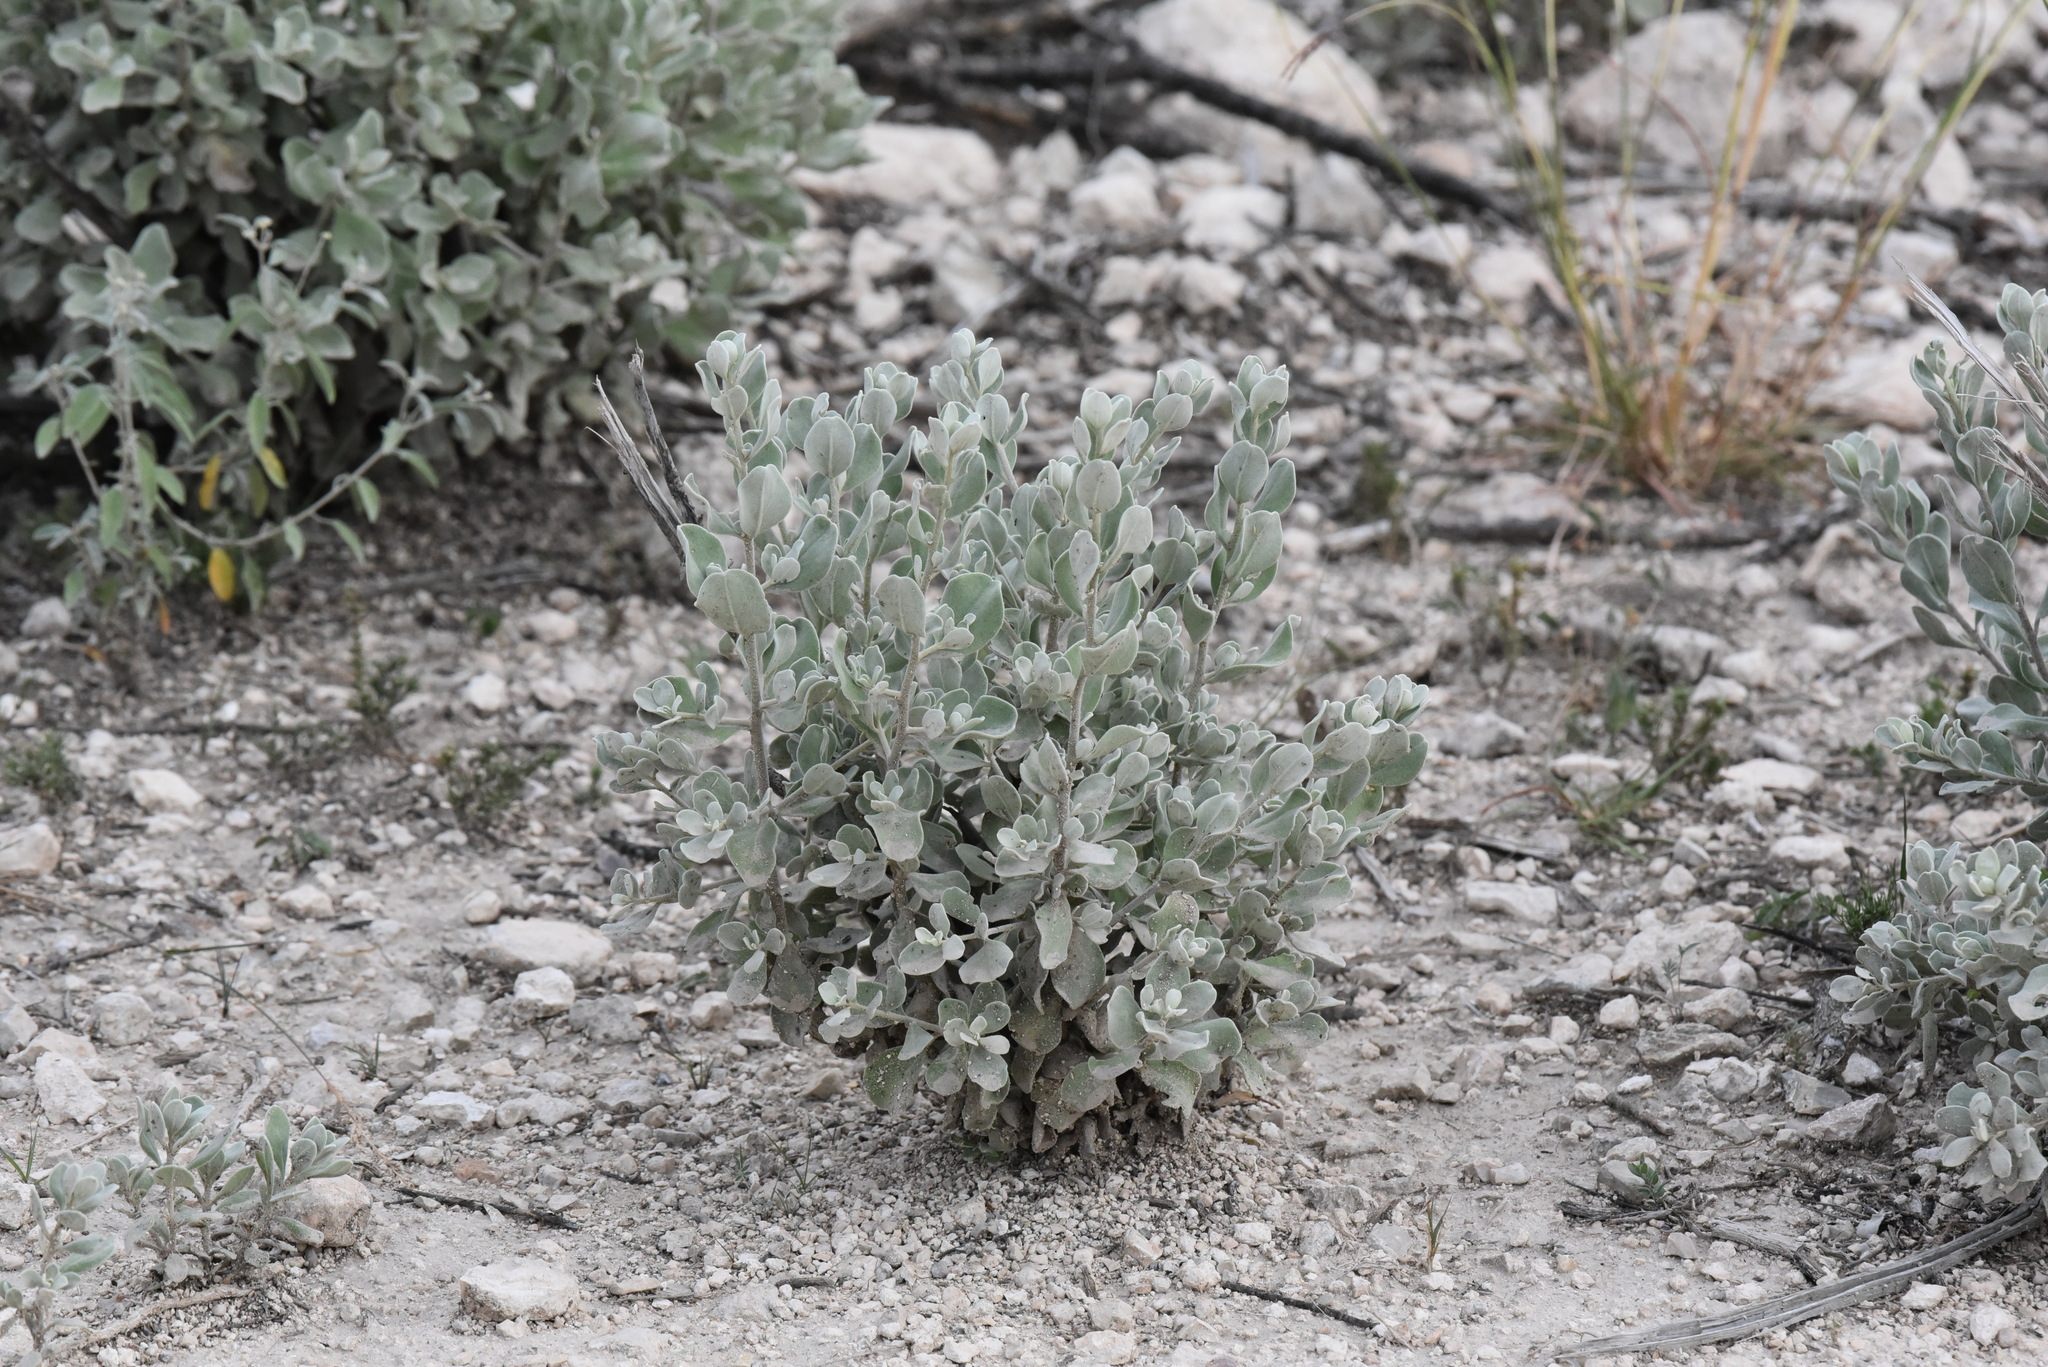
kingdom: Plantae
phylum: Tracheophyta
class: Magnoliopsida
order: Lamiales
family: Scrophulariaceae
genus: Leucophyllum
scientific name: Leucophyllum frutescens
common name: Texas silverleaf
